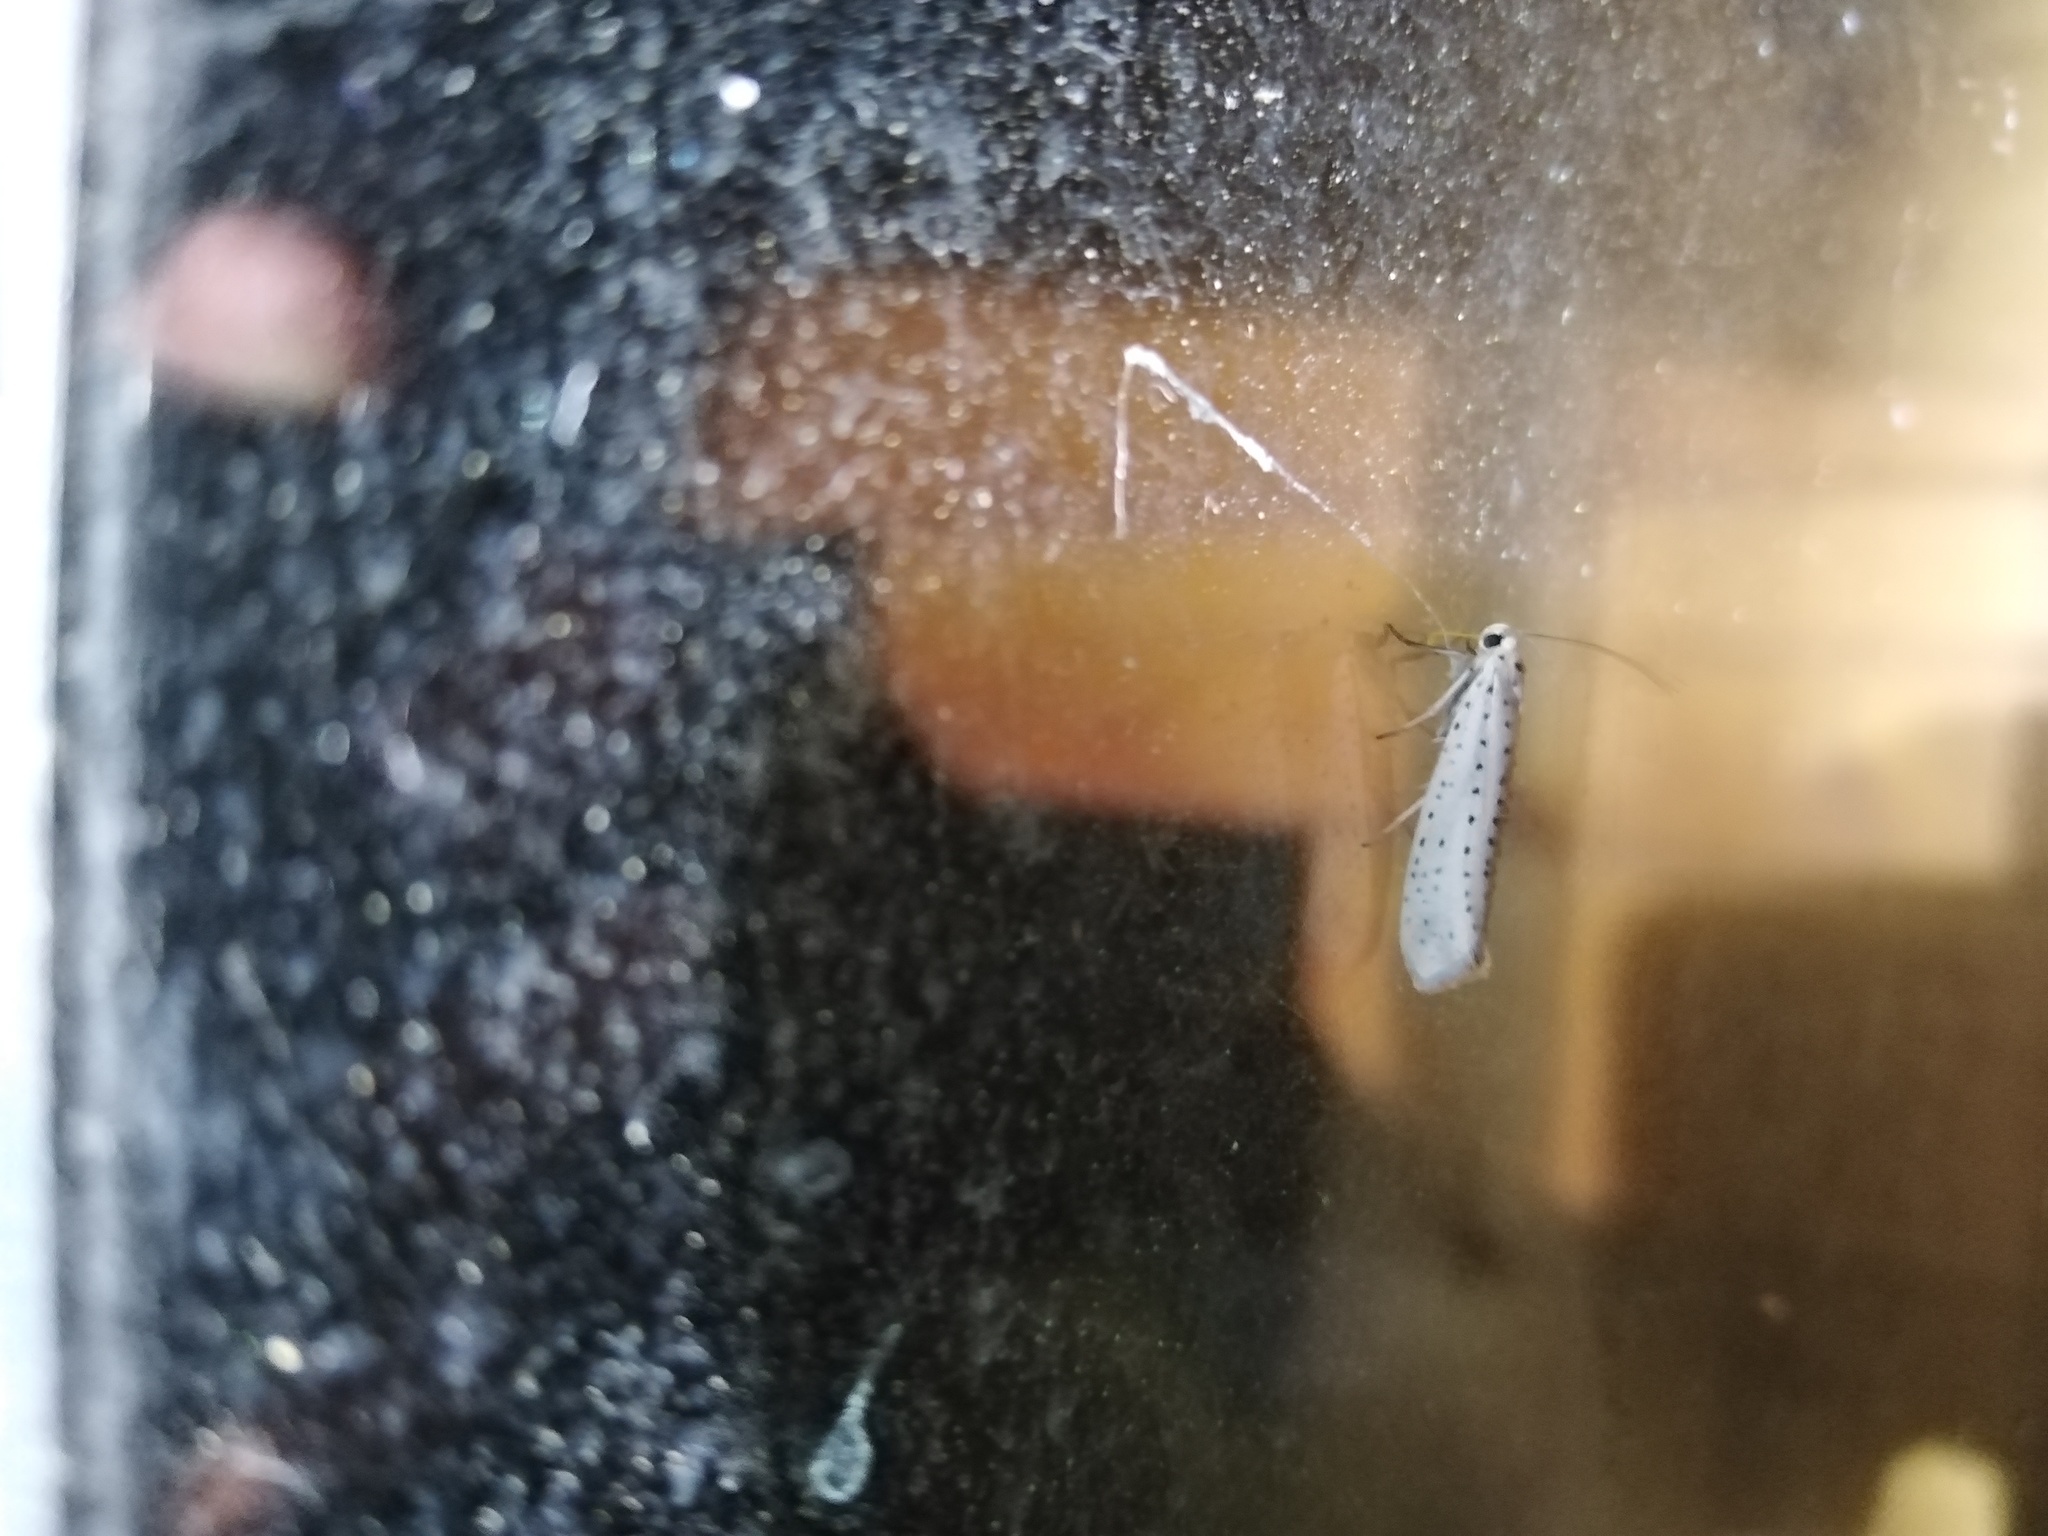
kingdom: Animalia
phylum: Arthropoda
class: Insecta
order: Lepidoptera
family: Yponomeutidae
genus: Yponomeuta
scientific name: Yponomeuta evonymella
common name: Bird-cherry ermine
